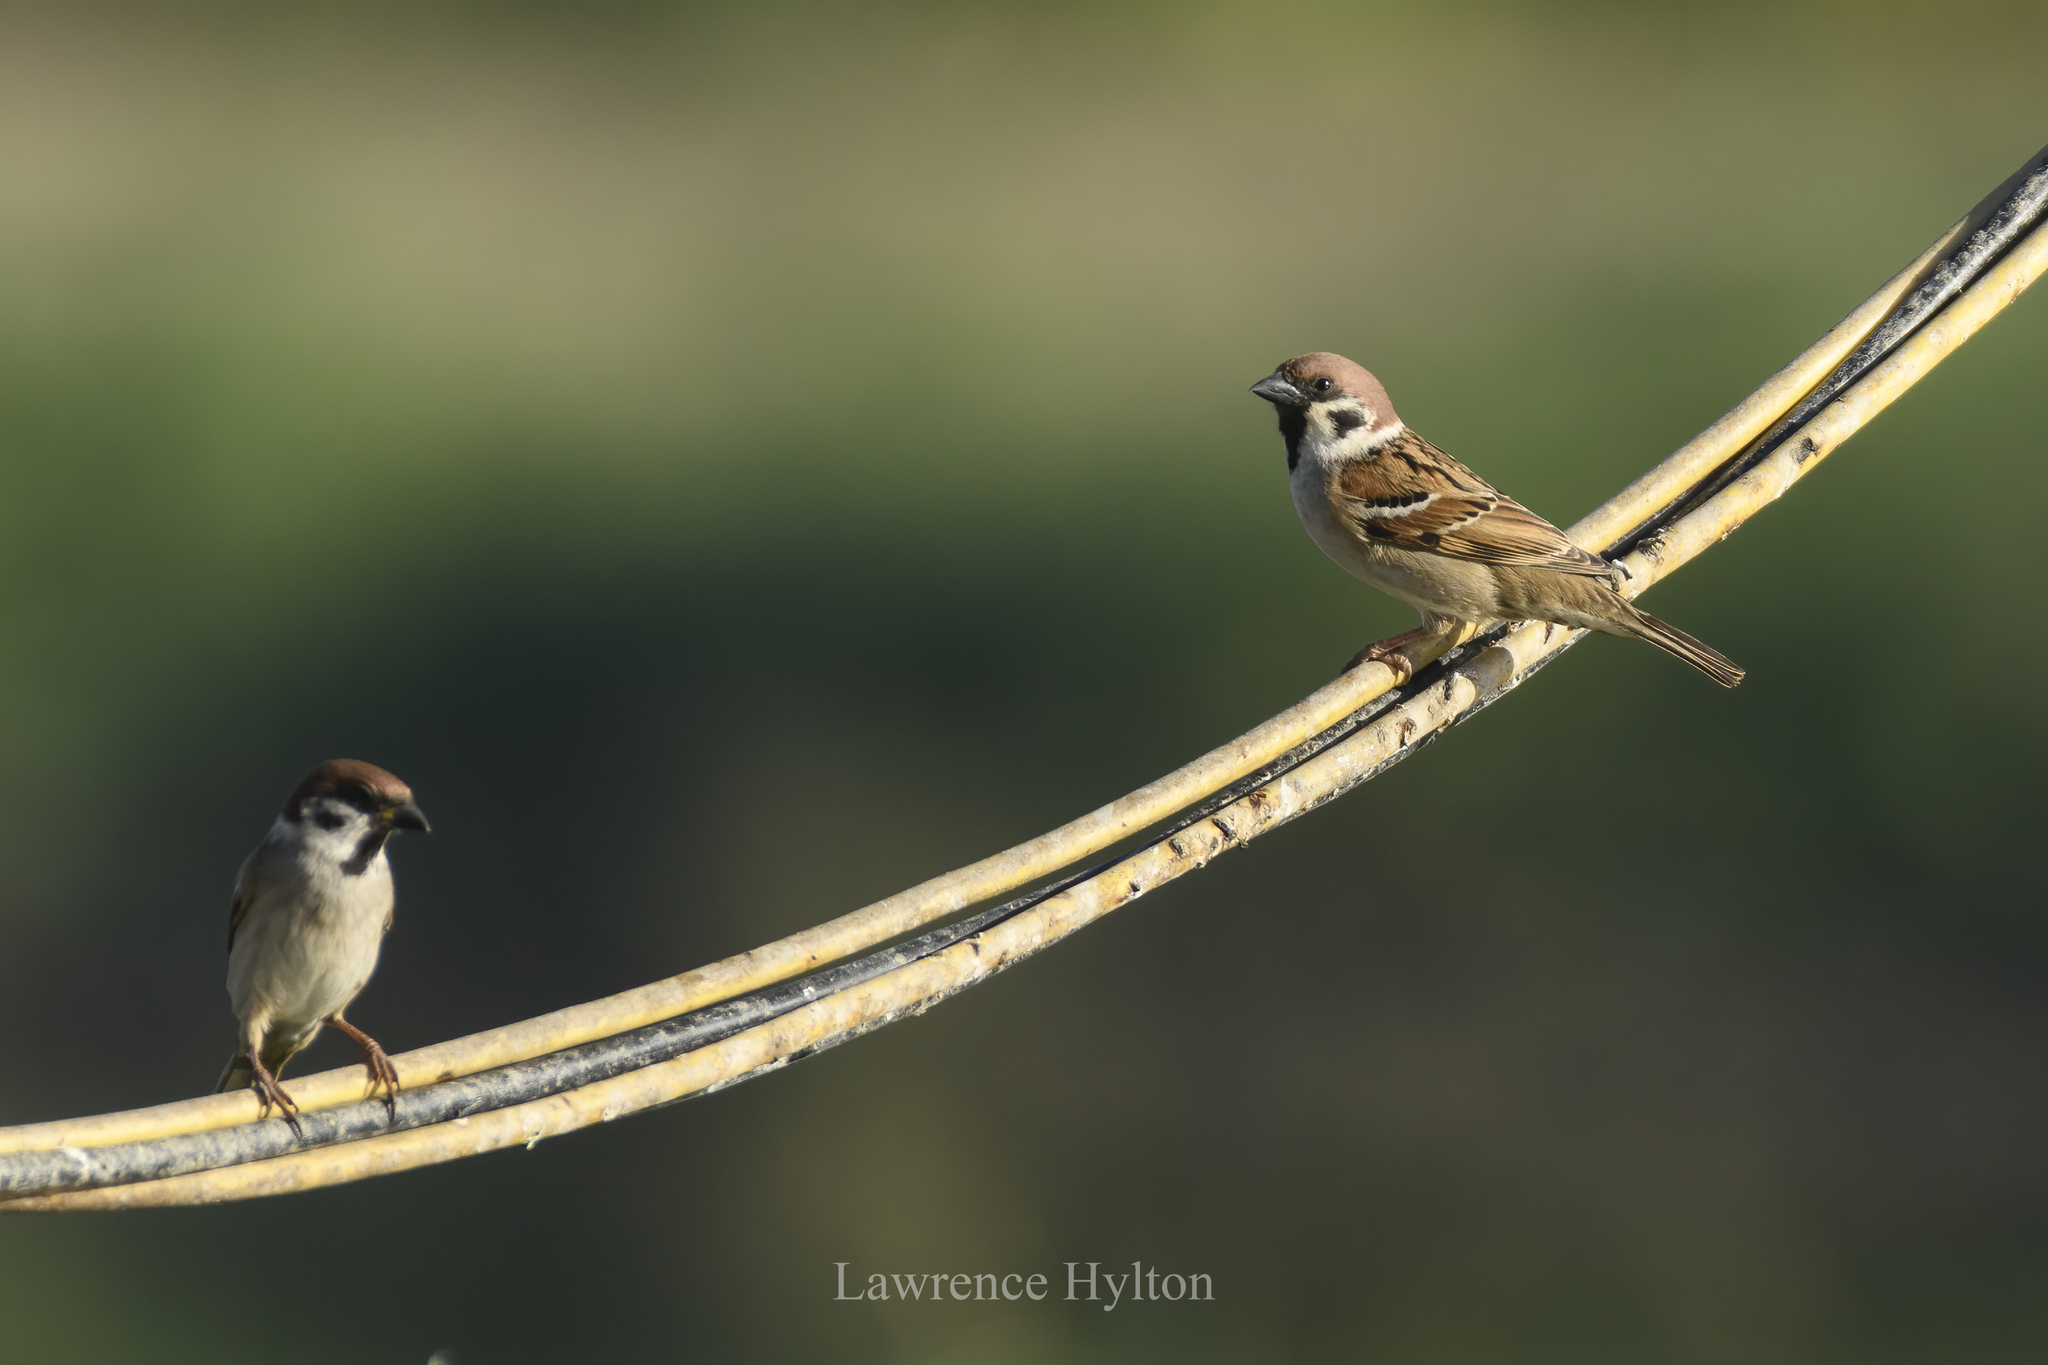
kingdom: Animalia
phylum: Chordata
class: Aves
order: Passeriformes
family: Passeridae
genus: Passer
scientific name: Passer montanus
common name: Eurasian tree sparrow
